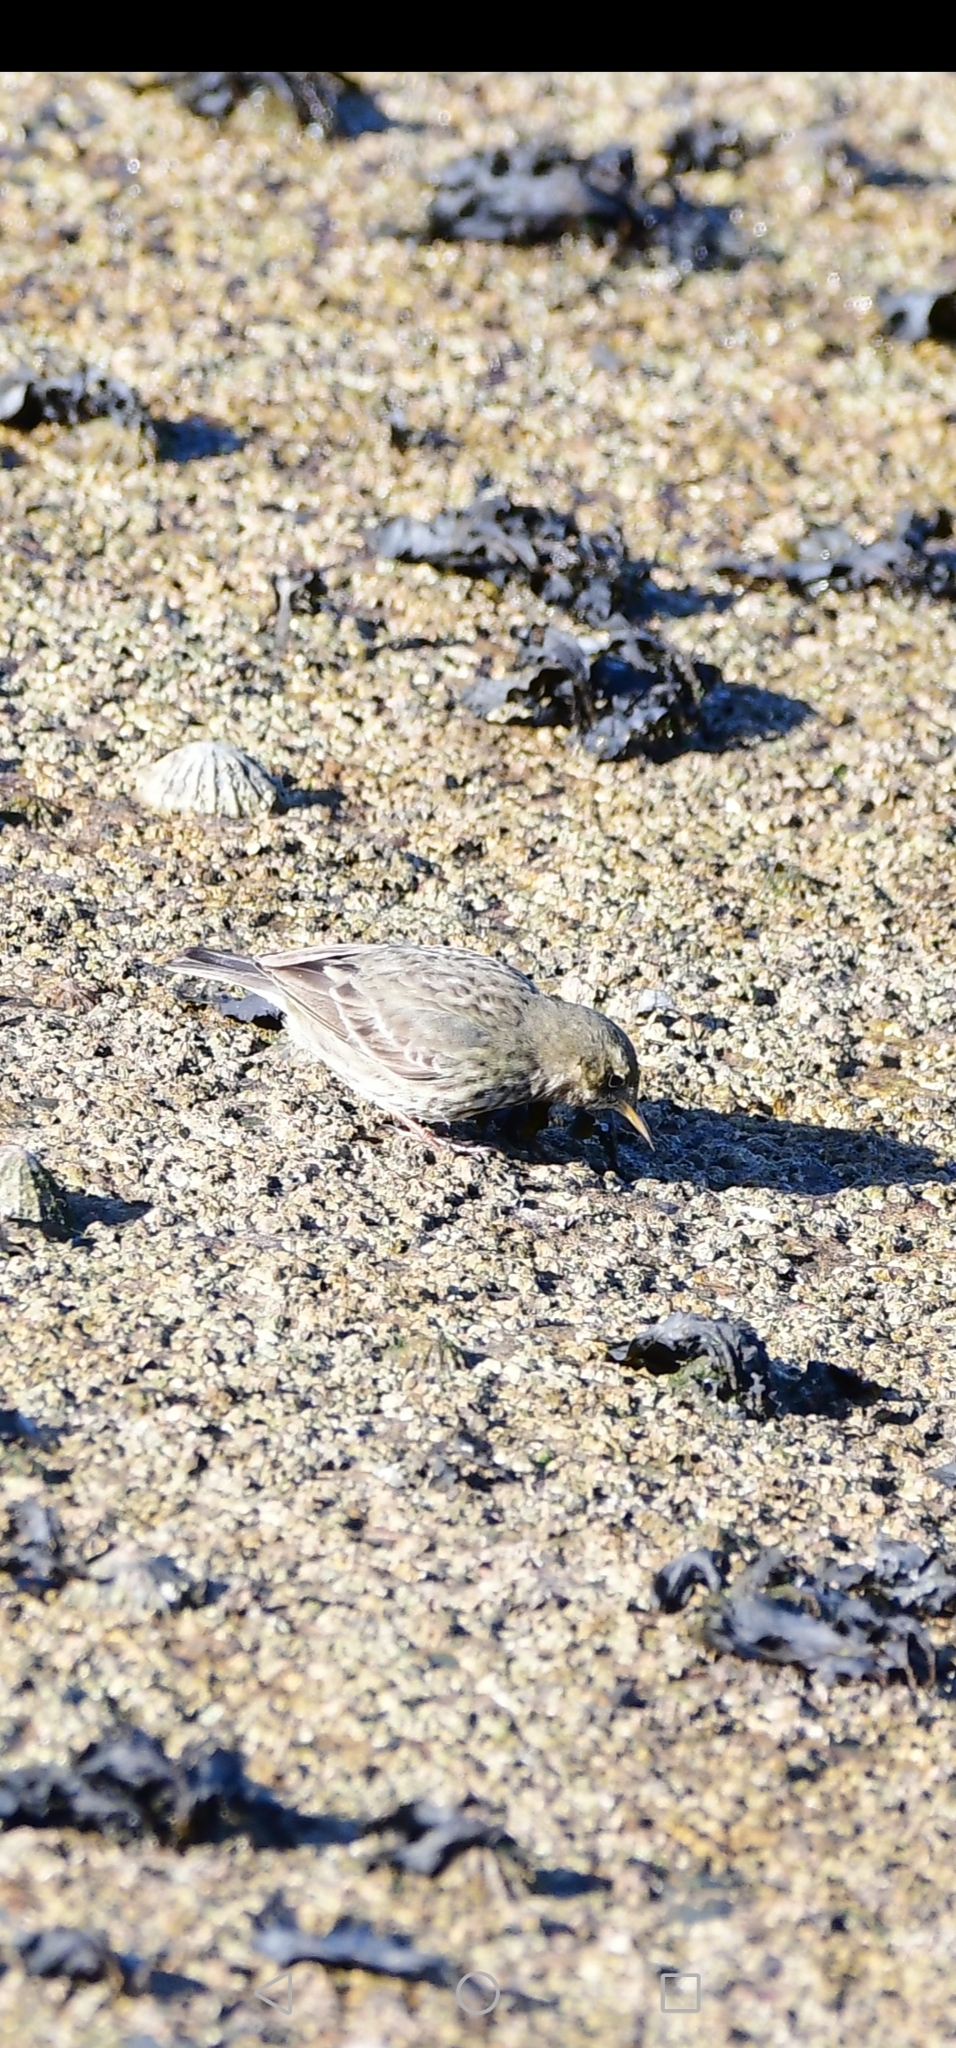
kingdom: Animalia
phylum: Chordata
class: Aves
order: Passeriformes
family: Motacillidae
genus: Anthus
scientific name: Anthus petrosus
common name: Eurasian rock pipit
